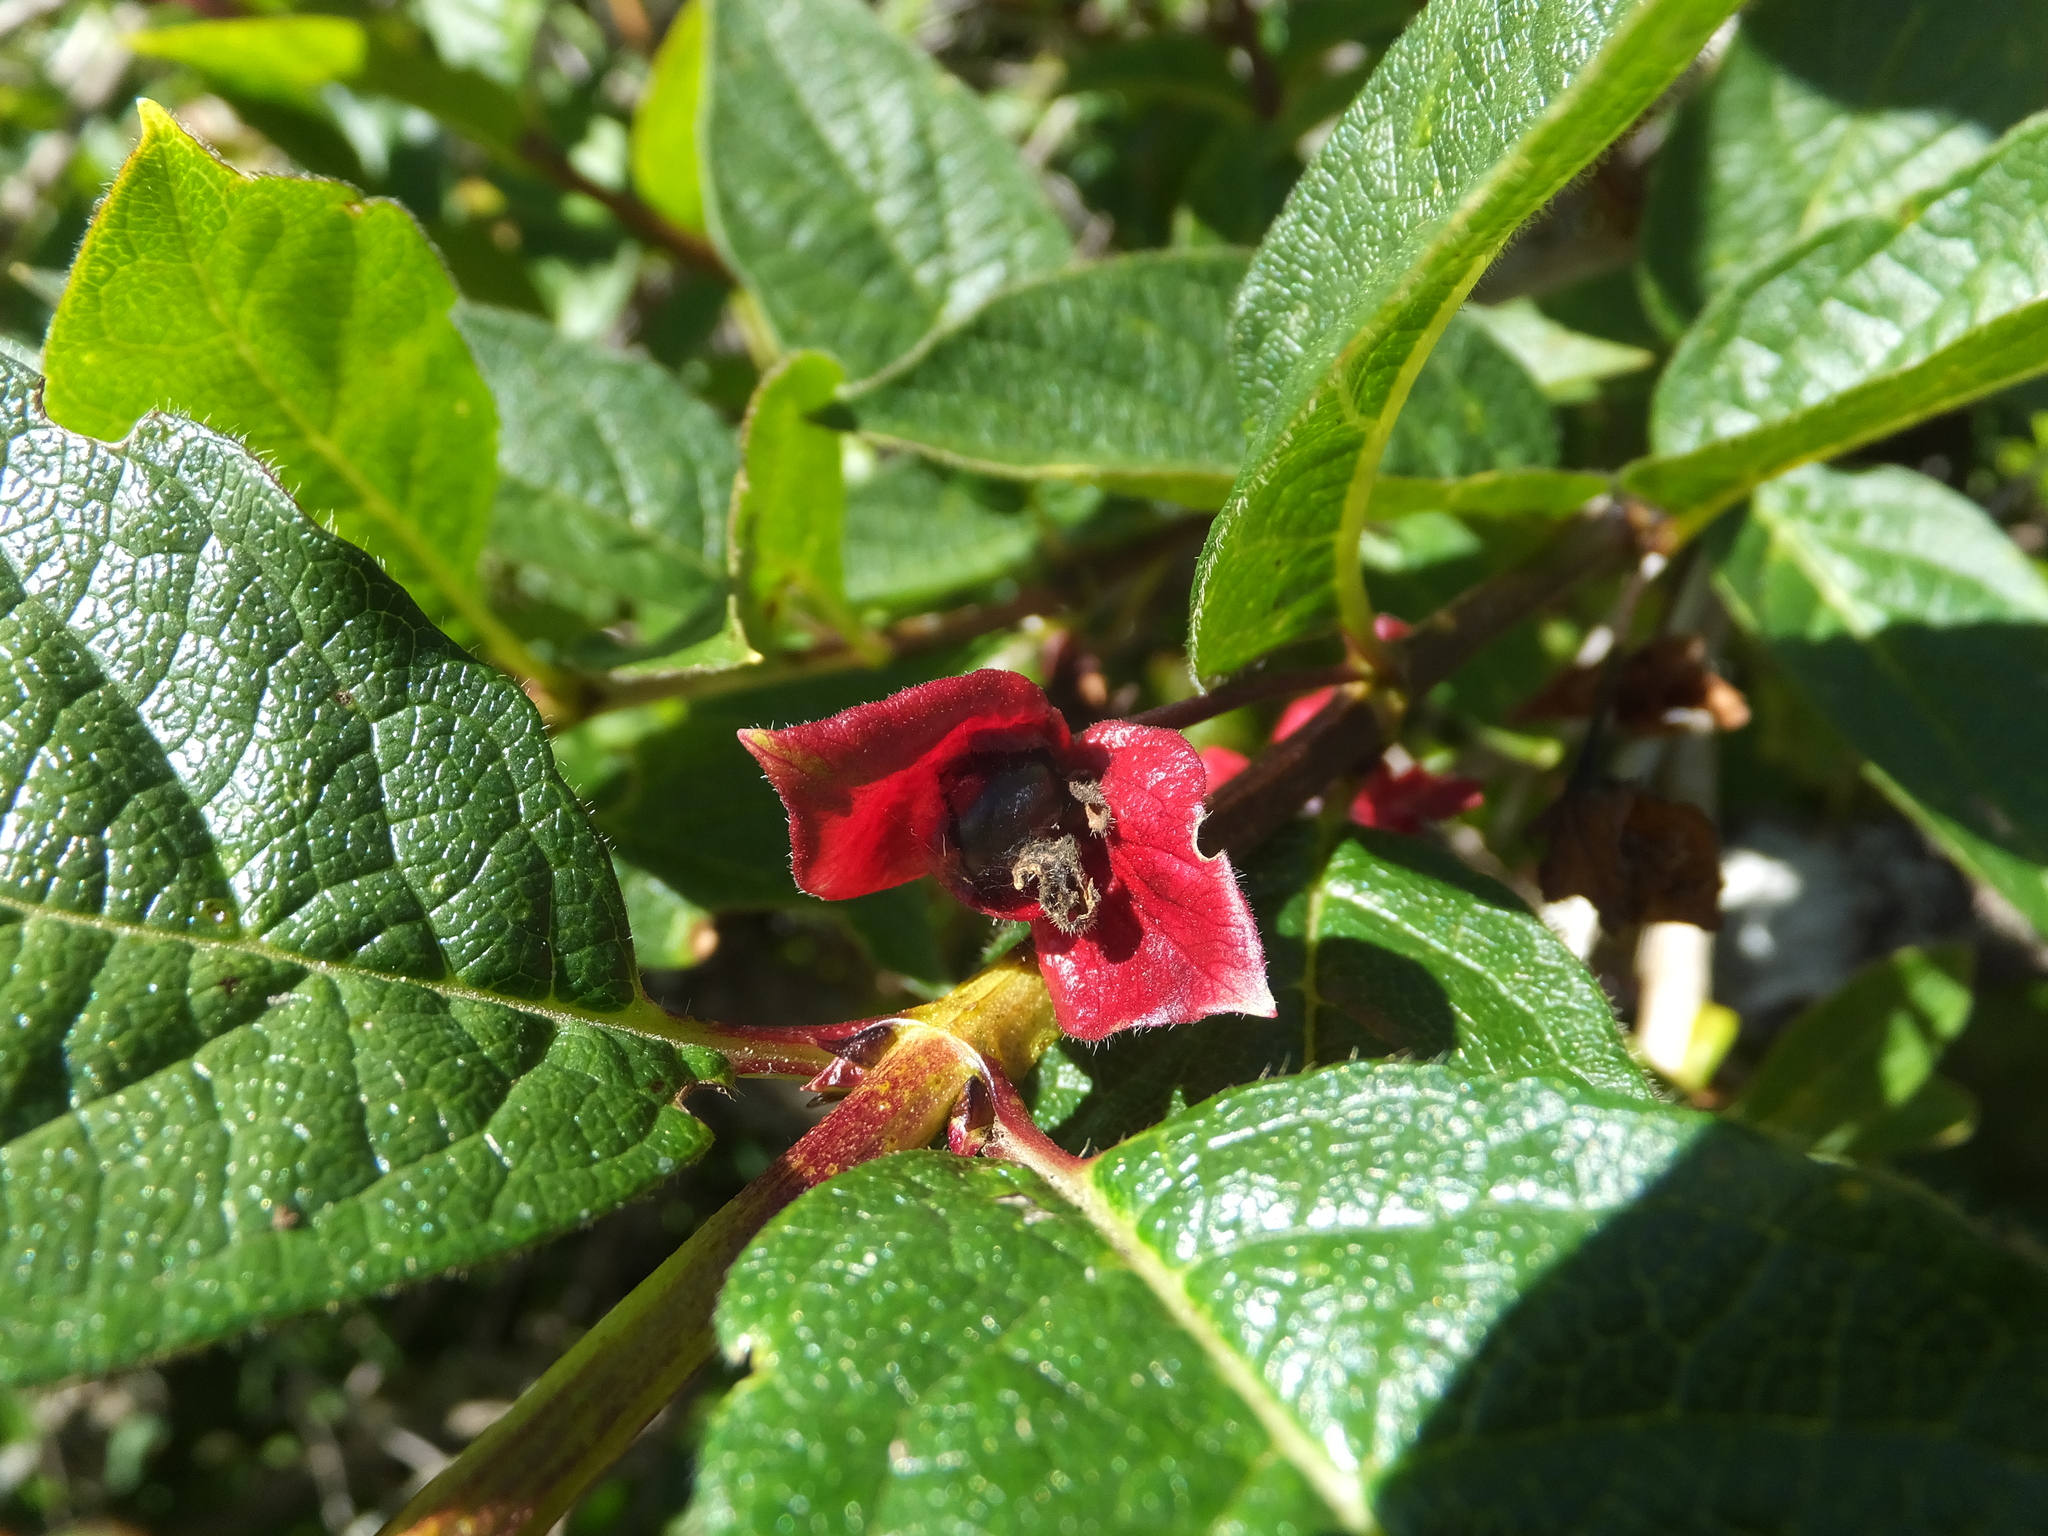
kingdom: Plantae
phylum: Tracheophyta
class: Magnoliopsida
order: Dipsacales
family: Caprifoliaceae
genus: Lonicera
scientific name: Lonicera involucrata
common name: Californian honeysuckle
